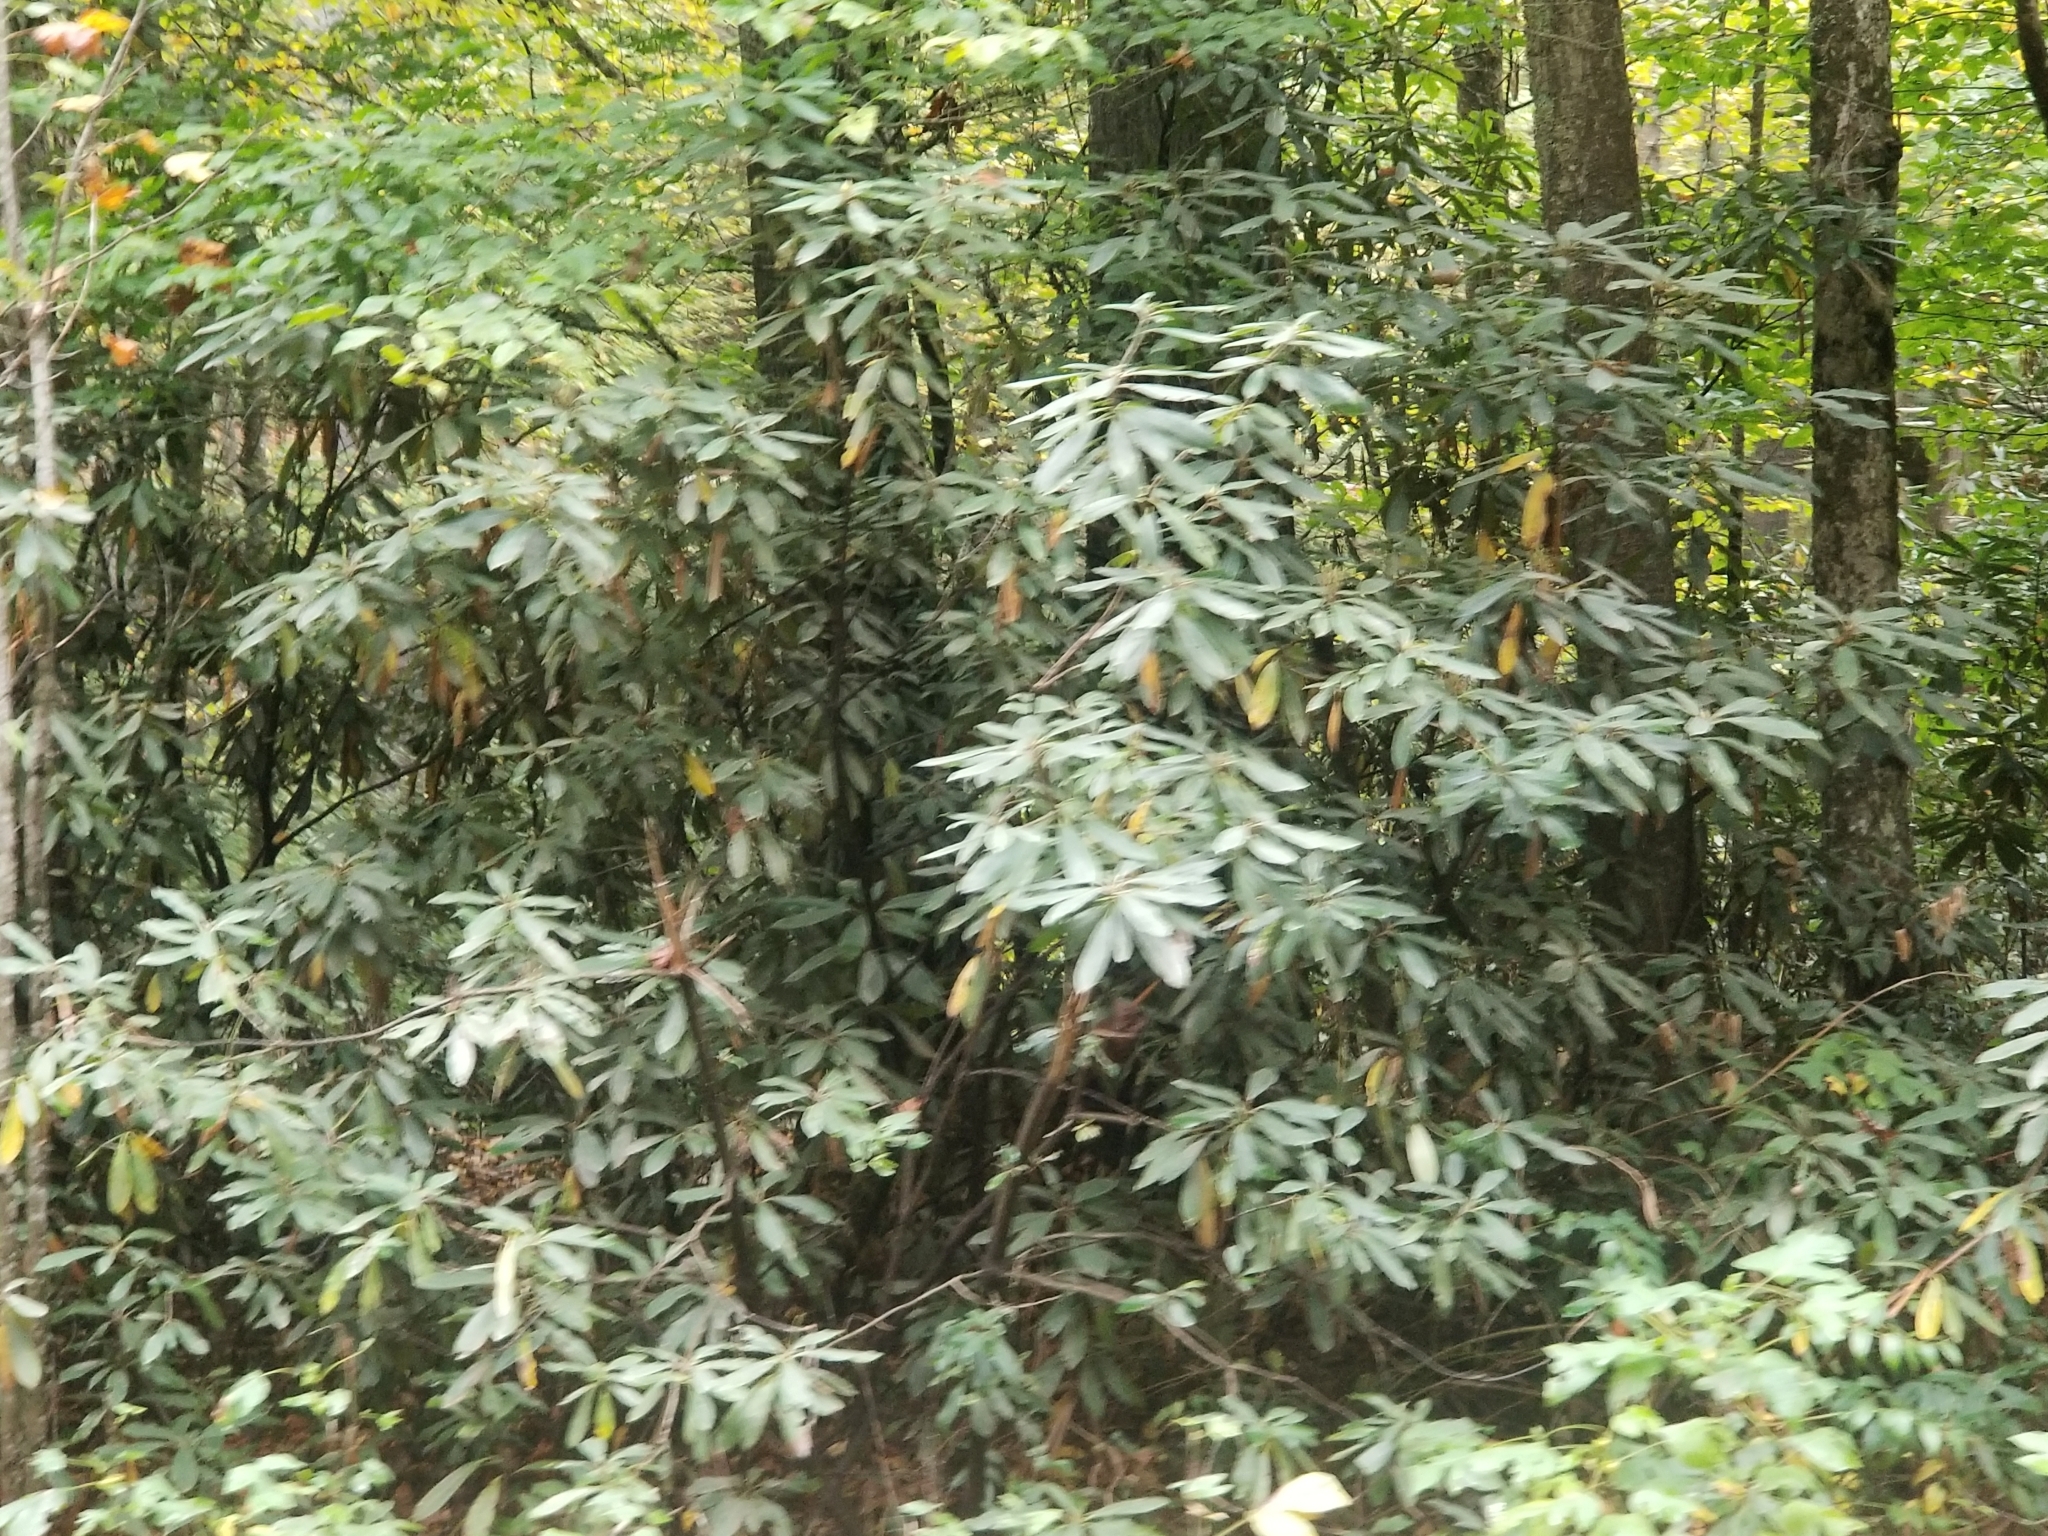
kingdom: Plantae
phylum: Tracheophyta
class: Magnoliopsida
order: Ericales
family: Ericaceae
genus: Rhododendron
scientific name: Rhododendron maximum
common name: Great rhododendron
